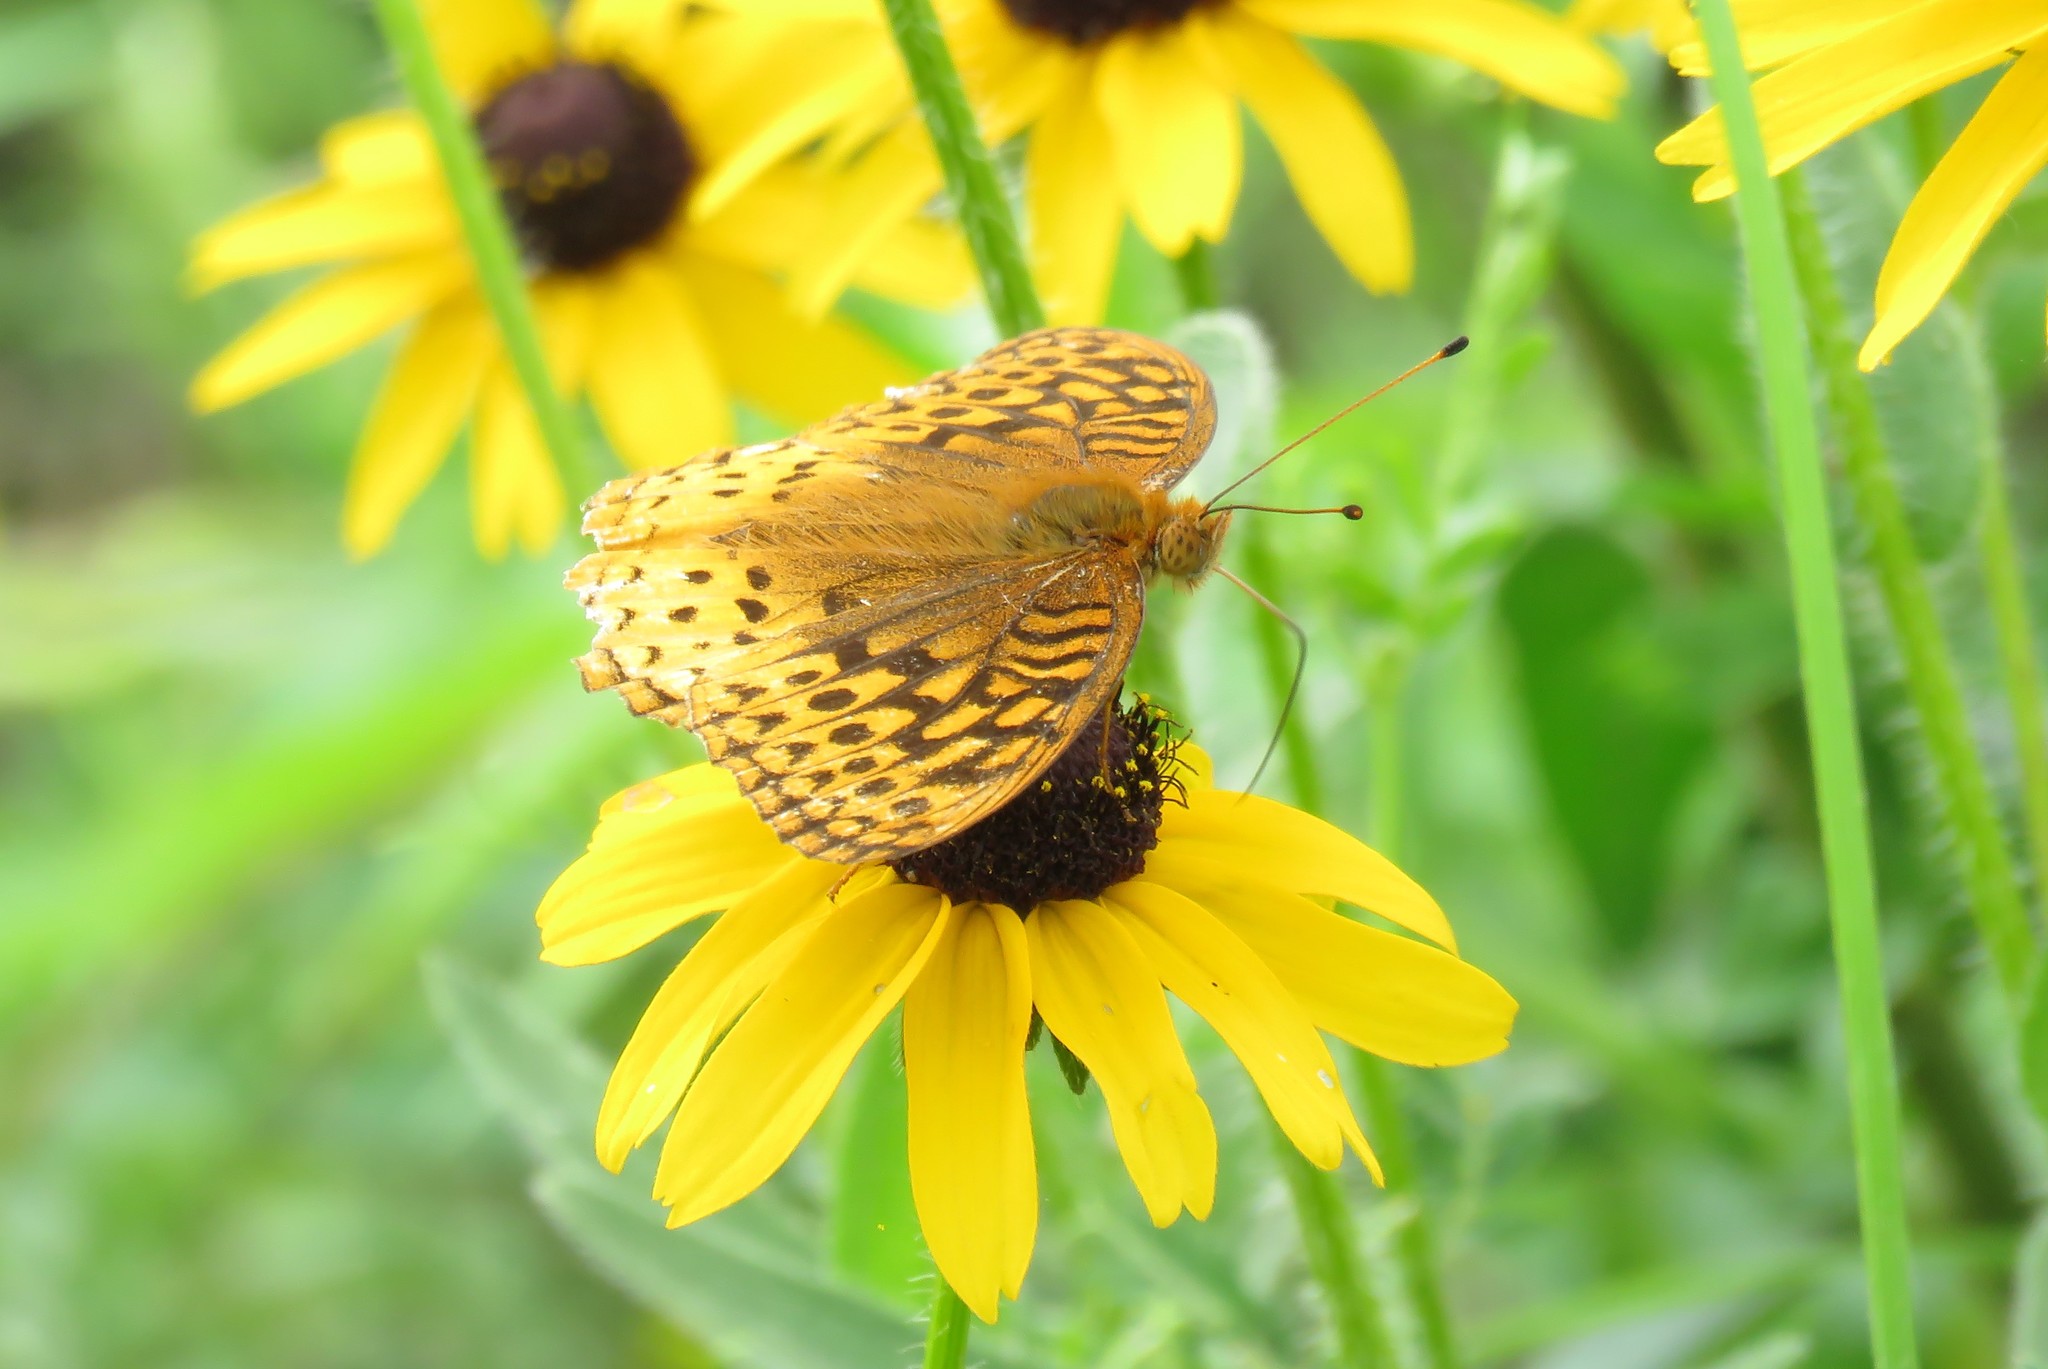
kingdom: Animalia
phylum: Arthropoda
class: Insecta
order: Lepidoptera
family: Nymphalidae
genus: Speyeria
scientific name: Speyeria cybele
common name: Great spangled fritillary
